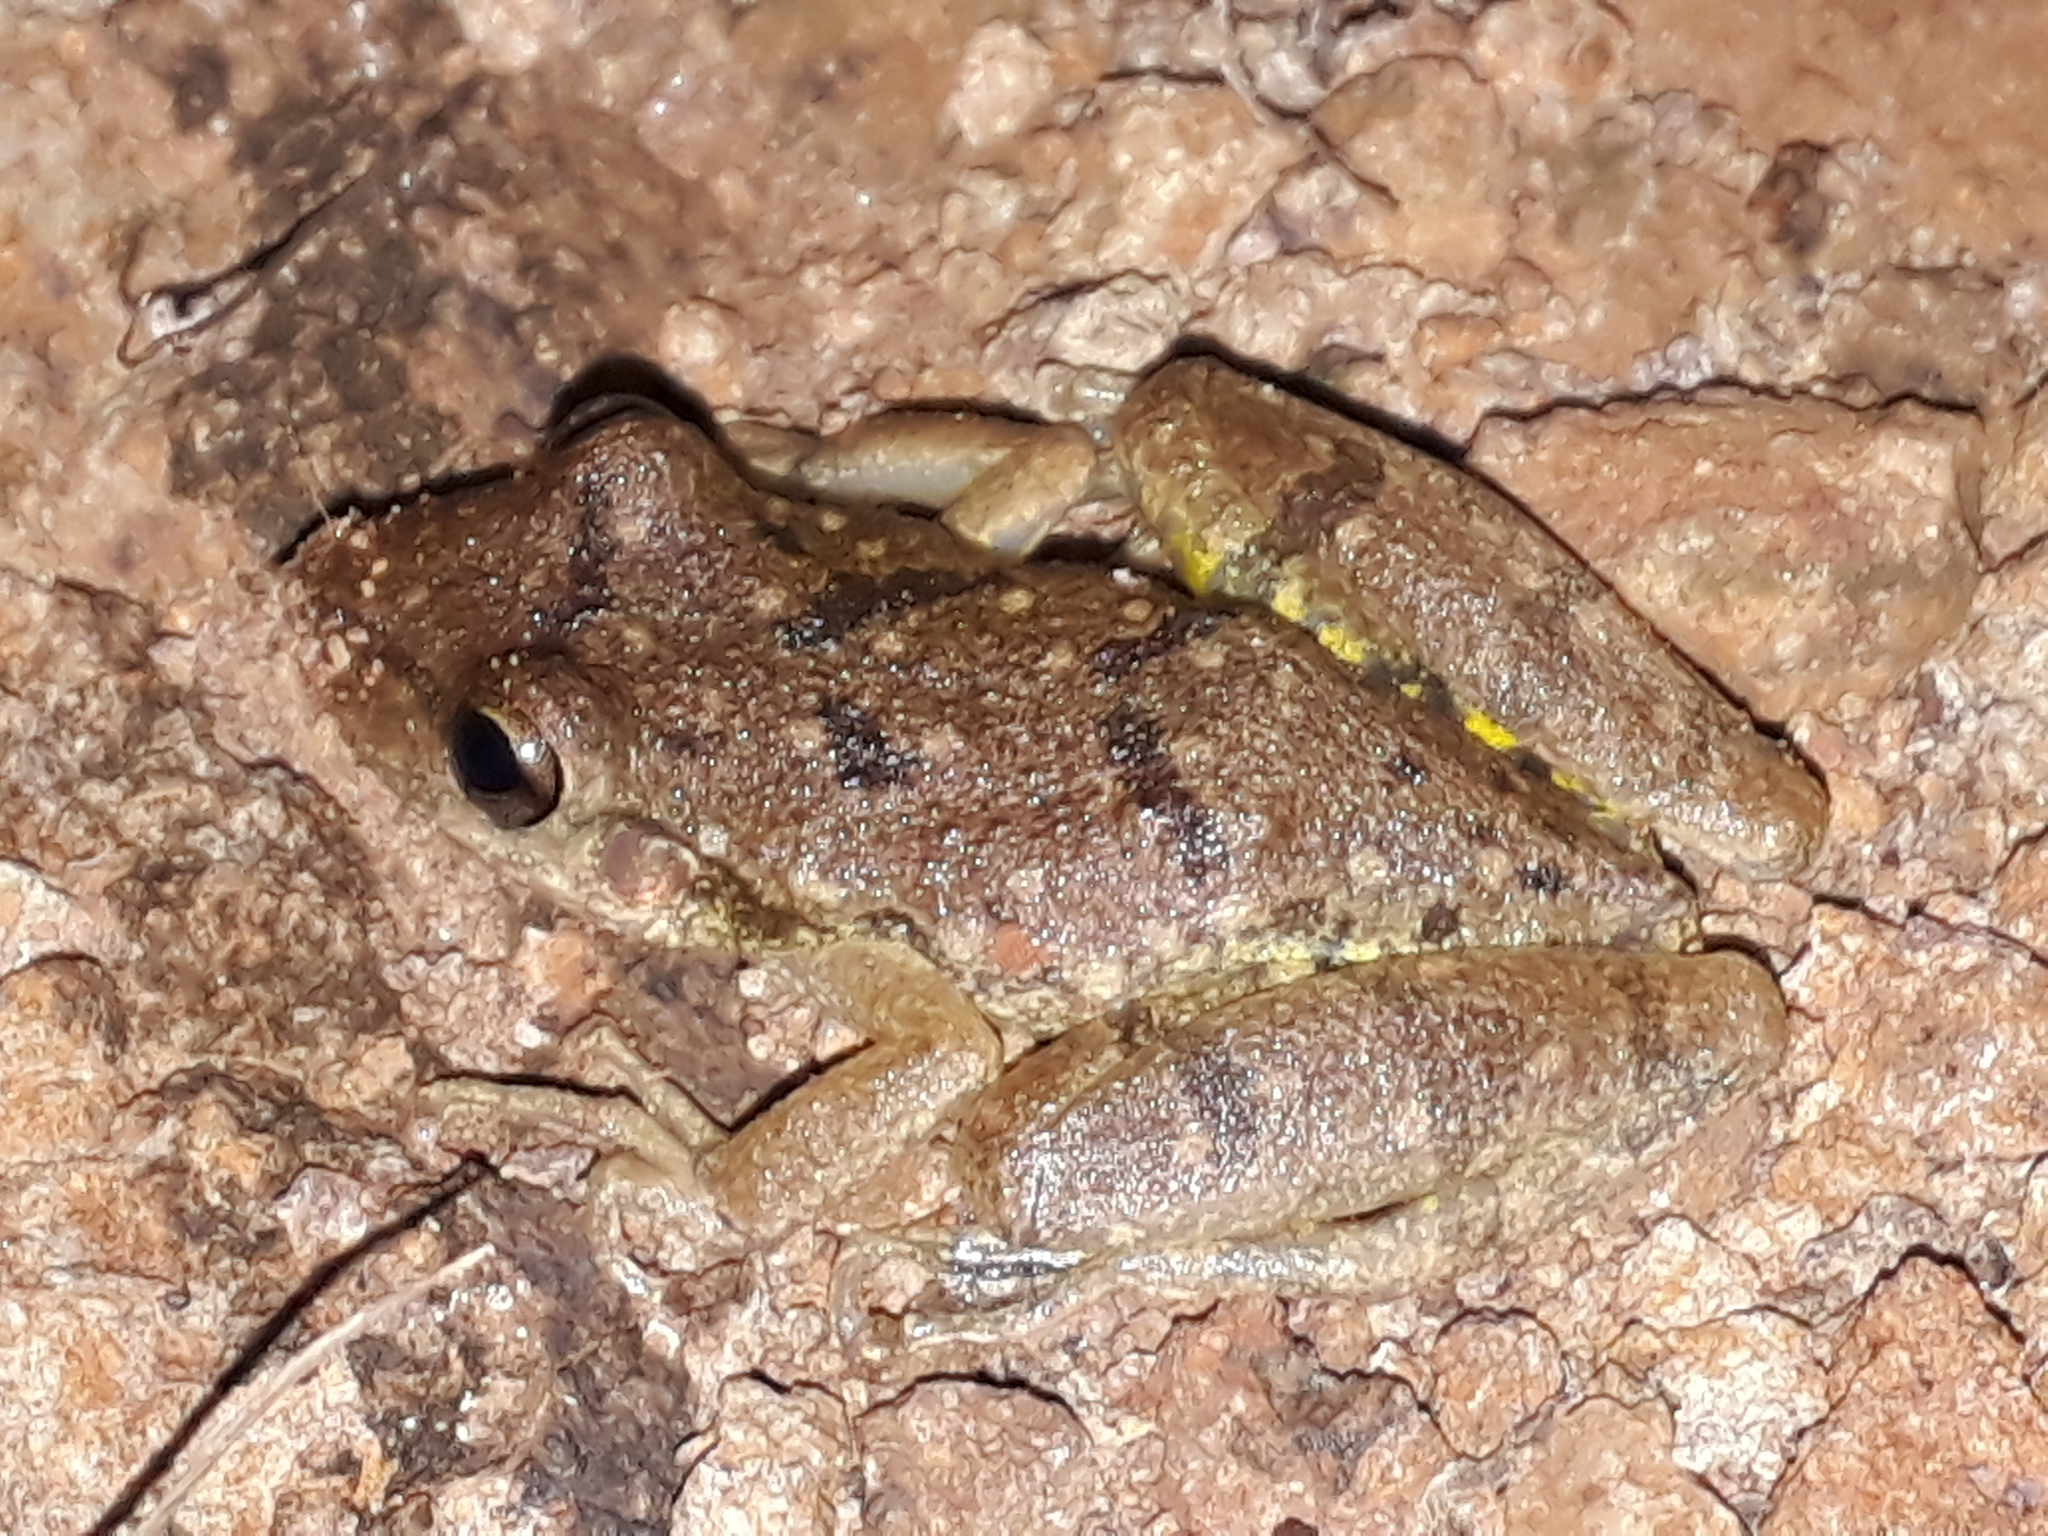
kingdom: Animalia
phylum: Chordata
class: Amphibia
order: Anura
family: Hylidae
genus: Scinax
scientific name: Scinax fuscovarius
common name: Fuscous-blotched treefrog
